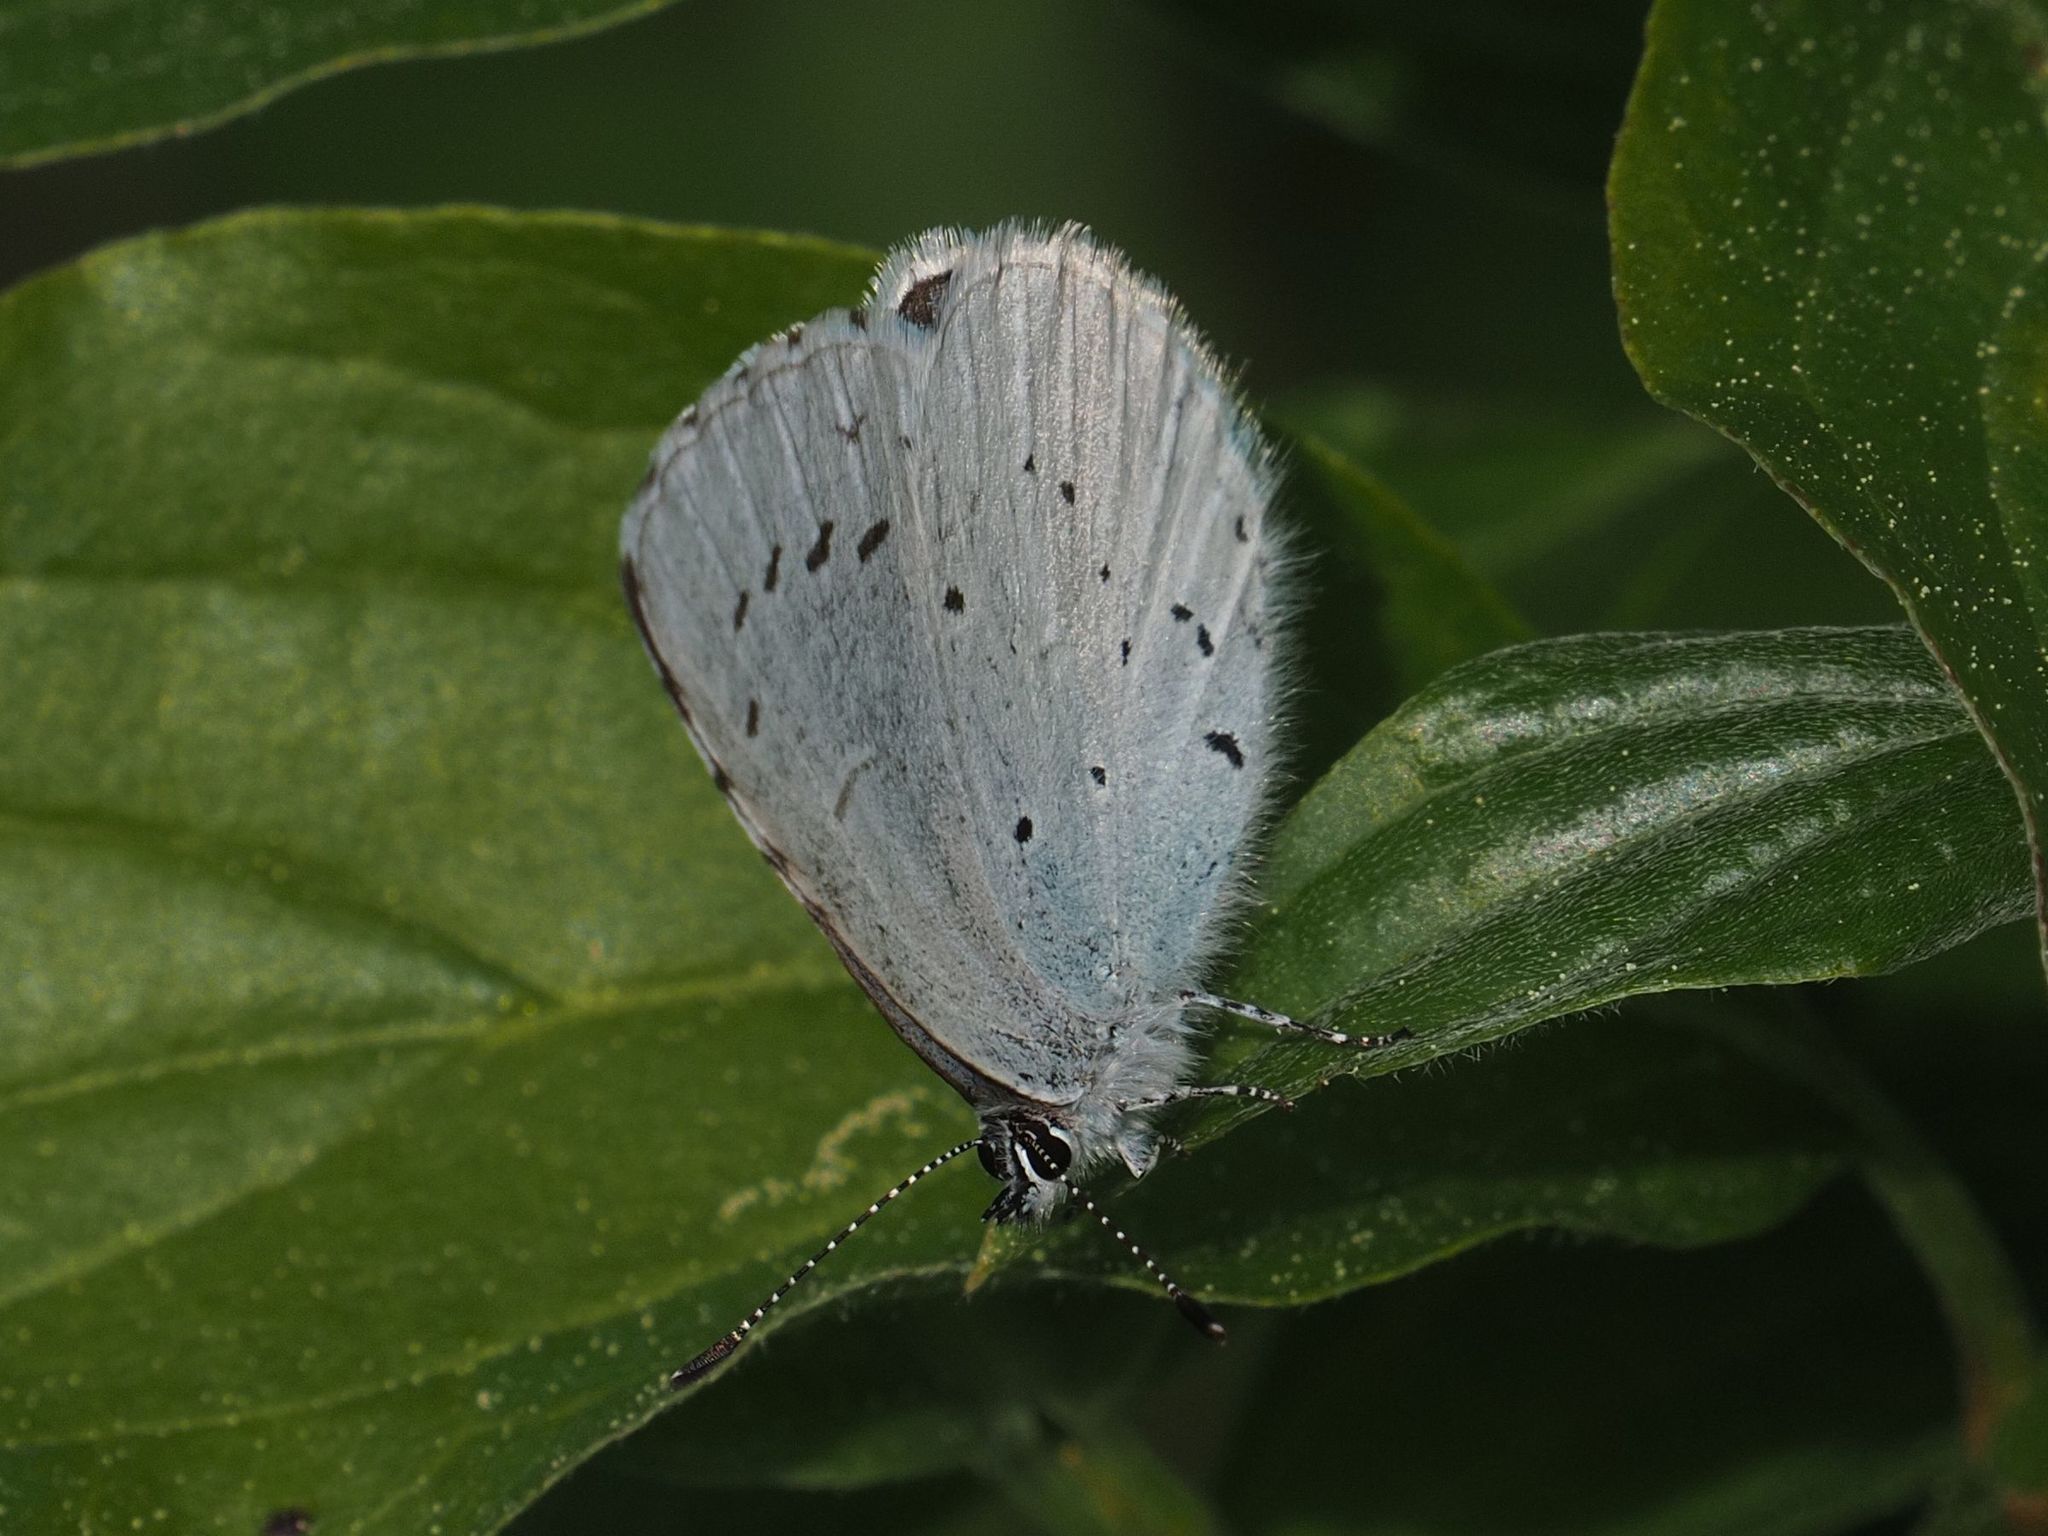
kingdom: Animalia
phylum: Arthropoda
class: Insecta
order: Lepidoptera
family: Lycaenidae
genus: Celastrina
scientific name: Celastrina argiolus
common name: Holly blue
